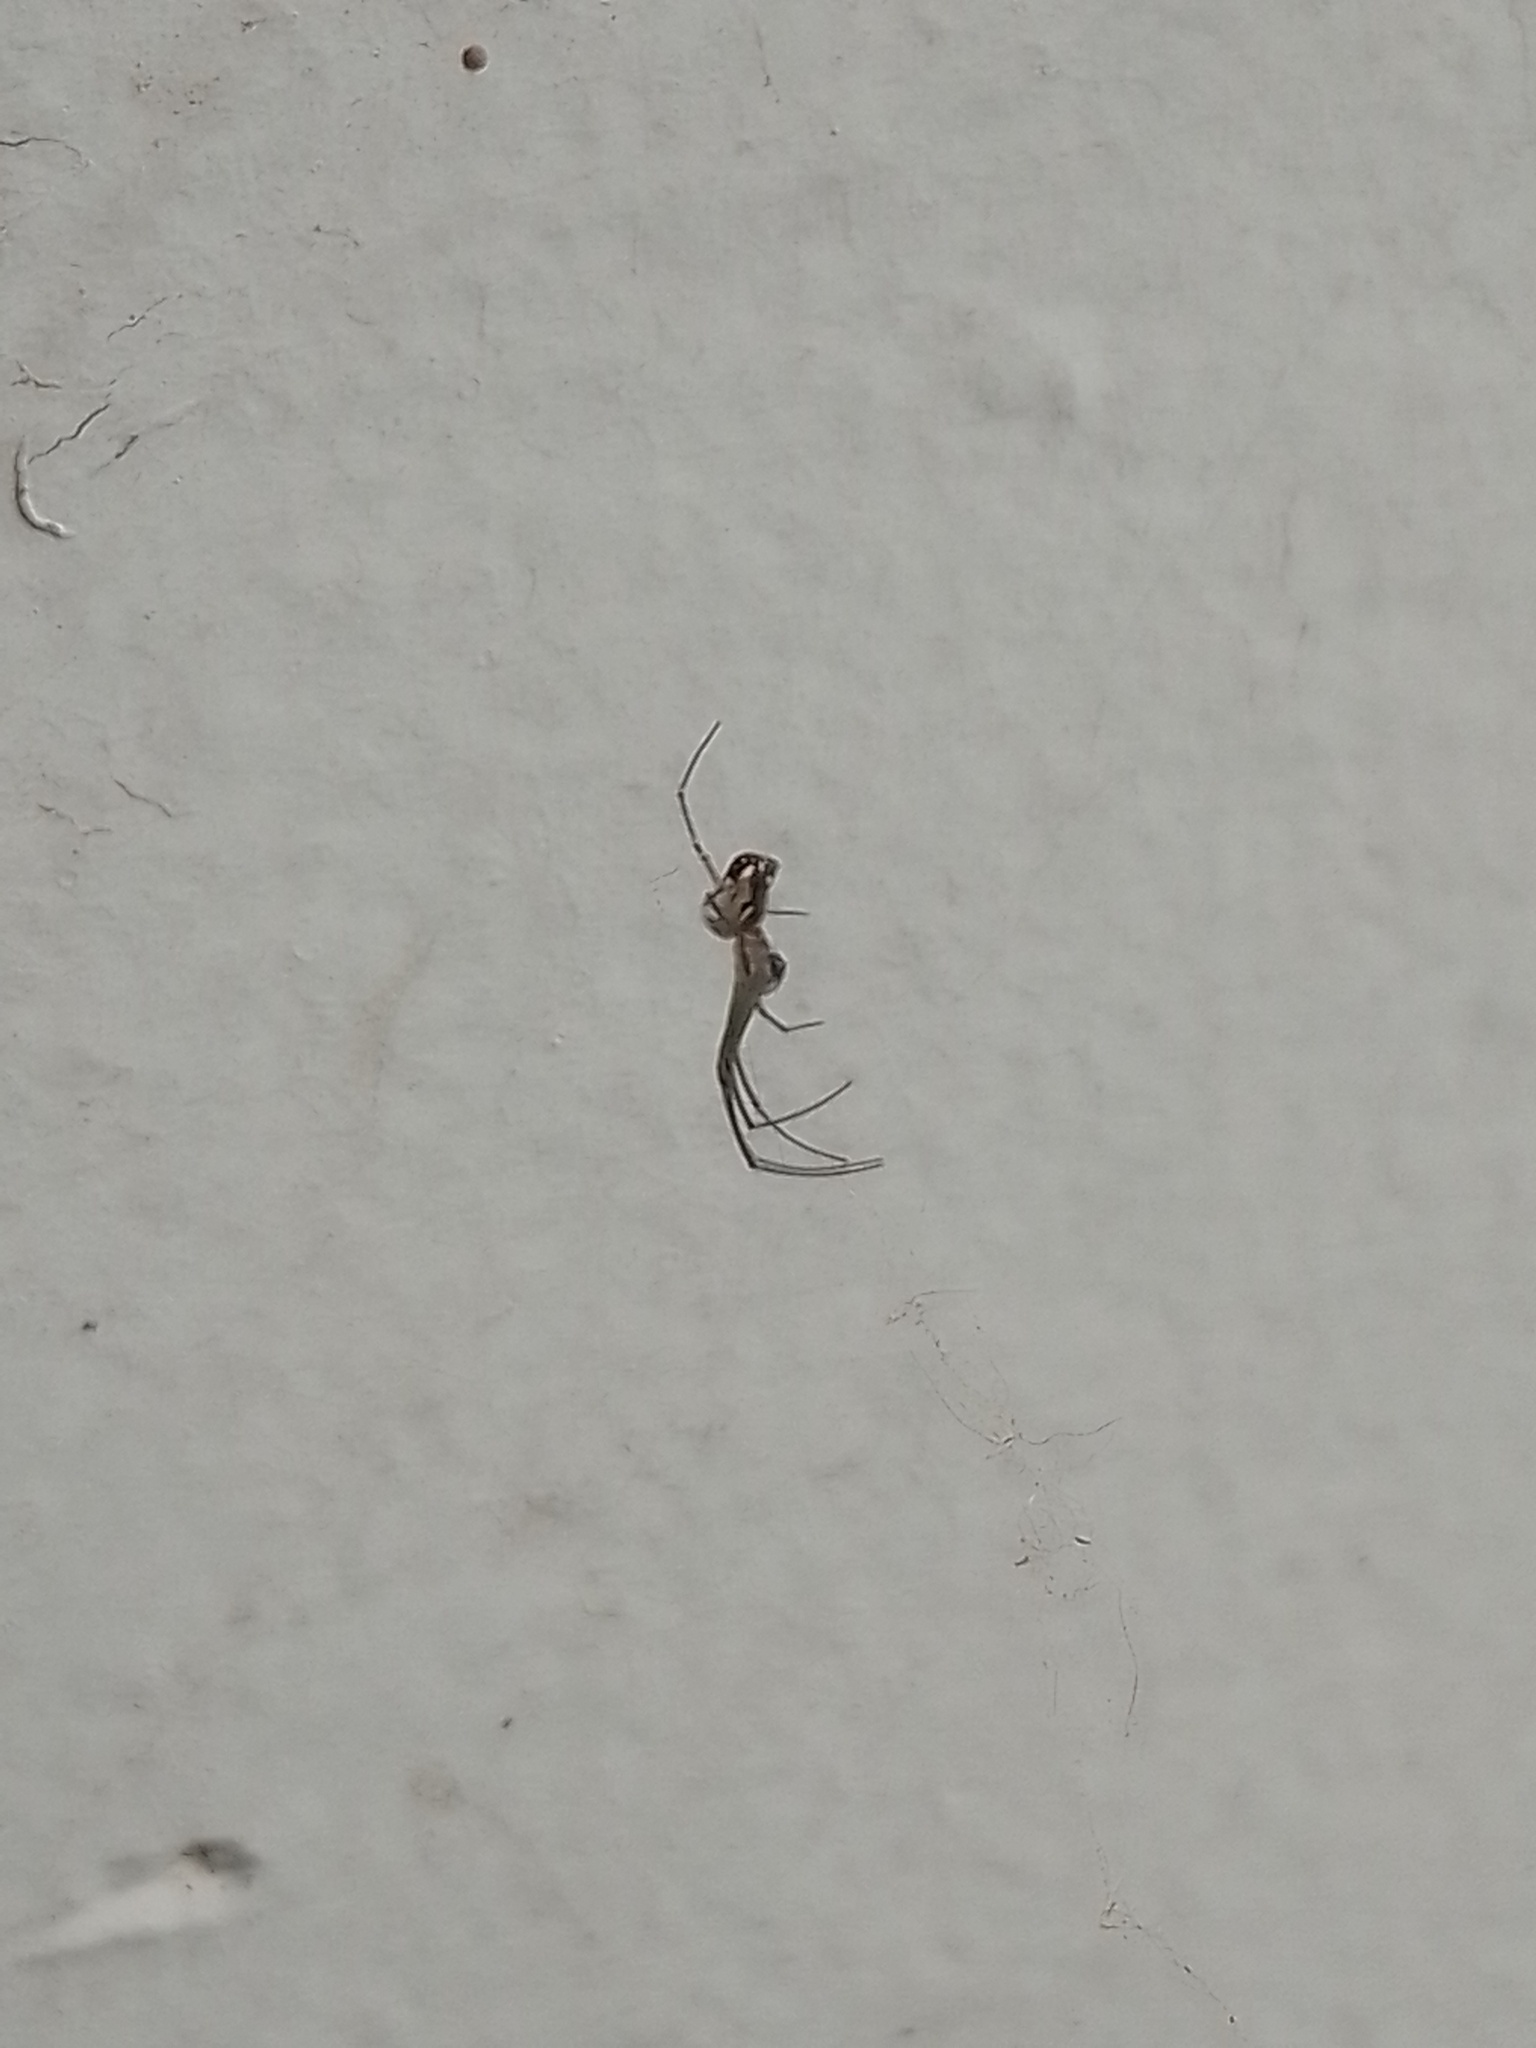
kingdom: Animalia
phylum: Arthropoda
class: Arachnida
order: Araneae
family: Tetragnathidae
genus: Leucauge
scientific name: Leucauge volupis
